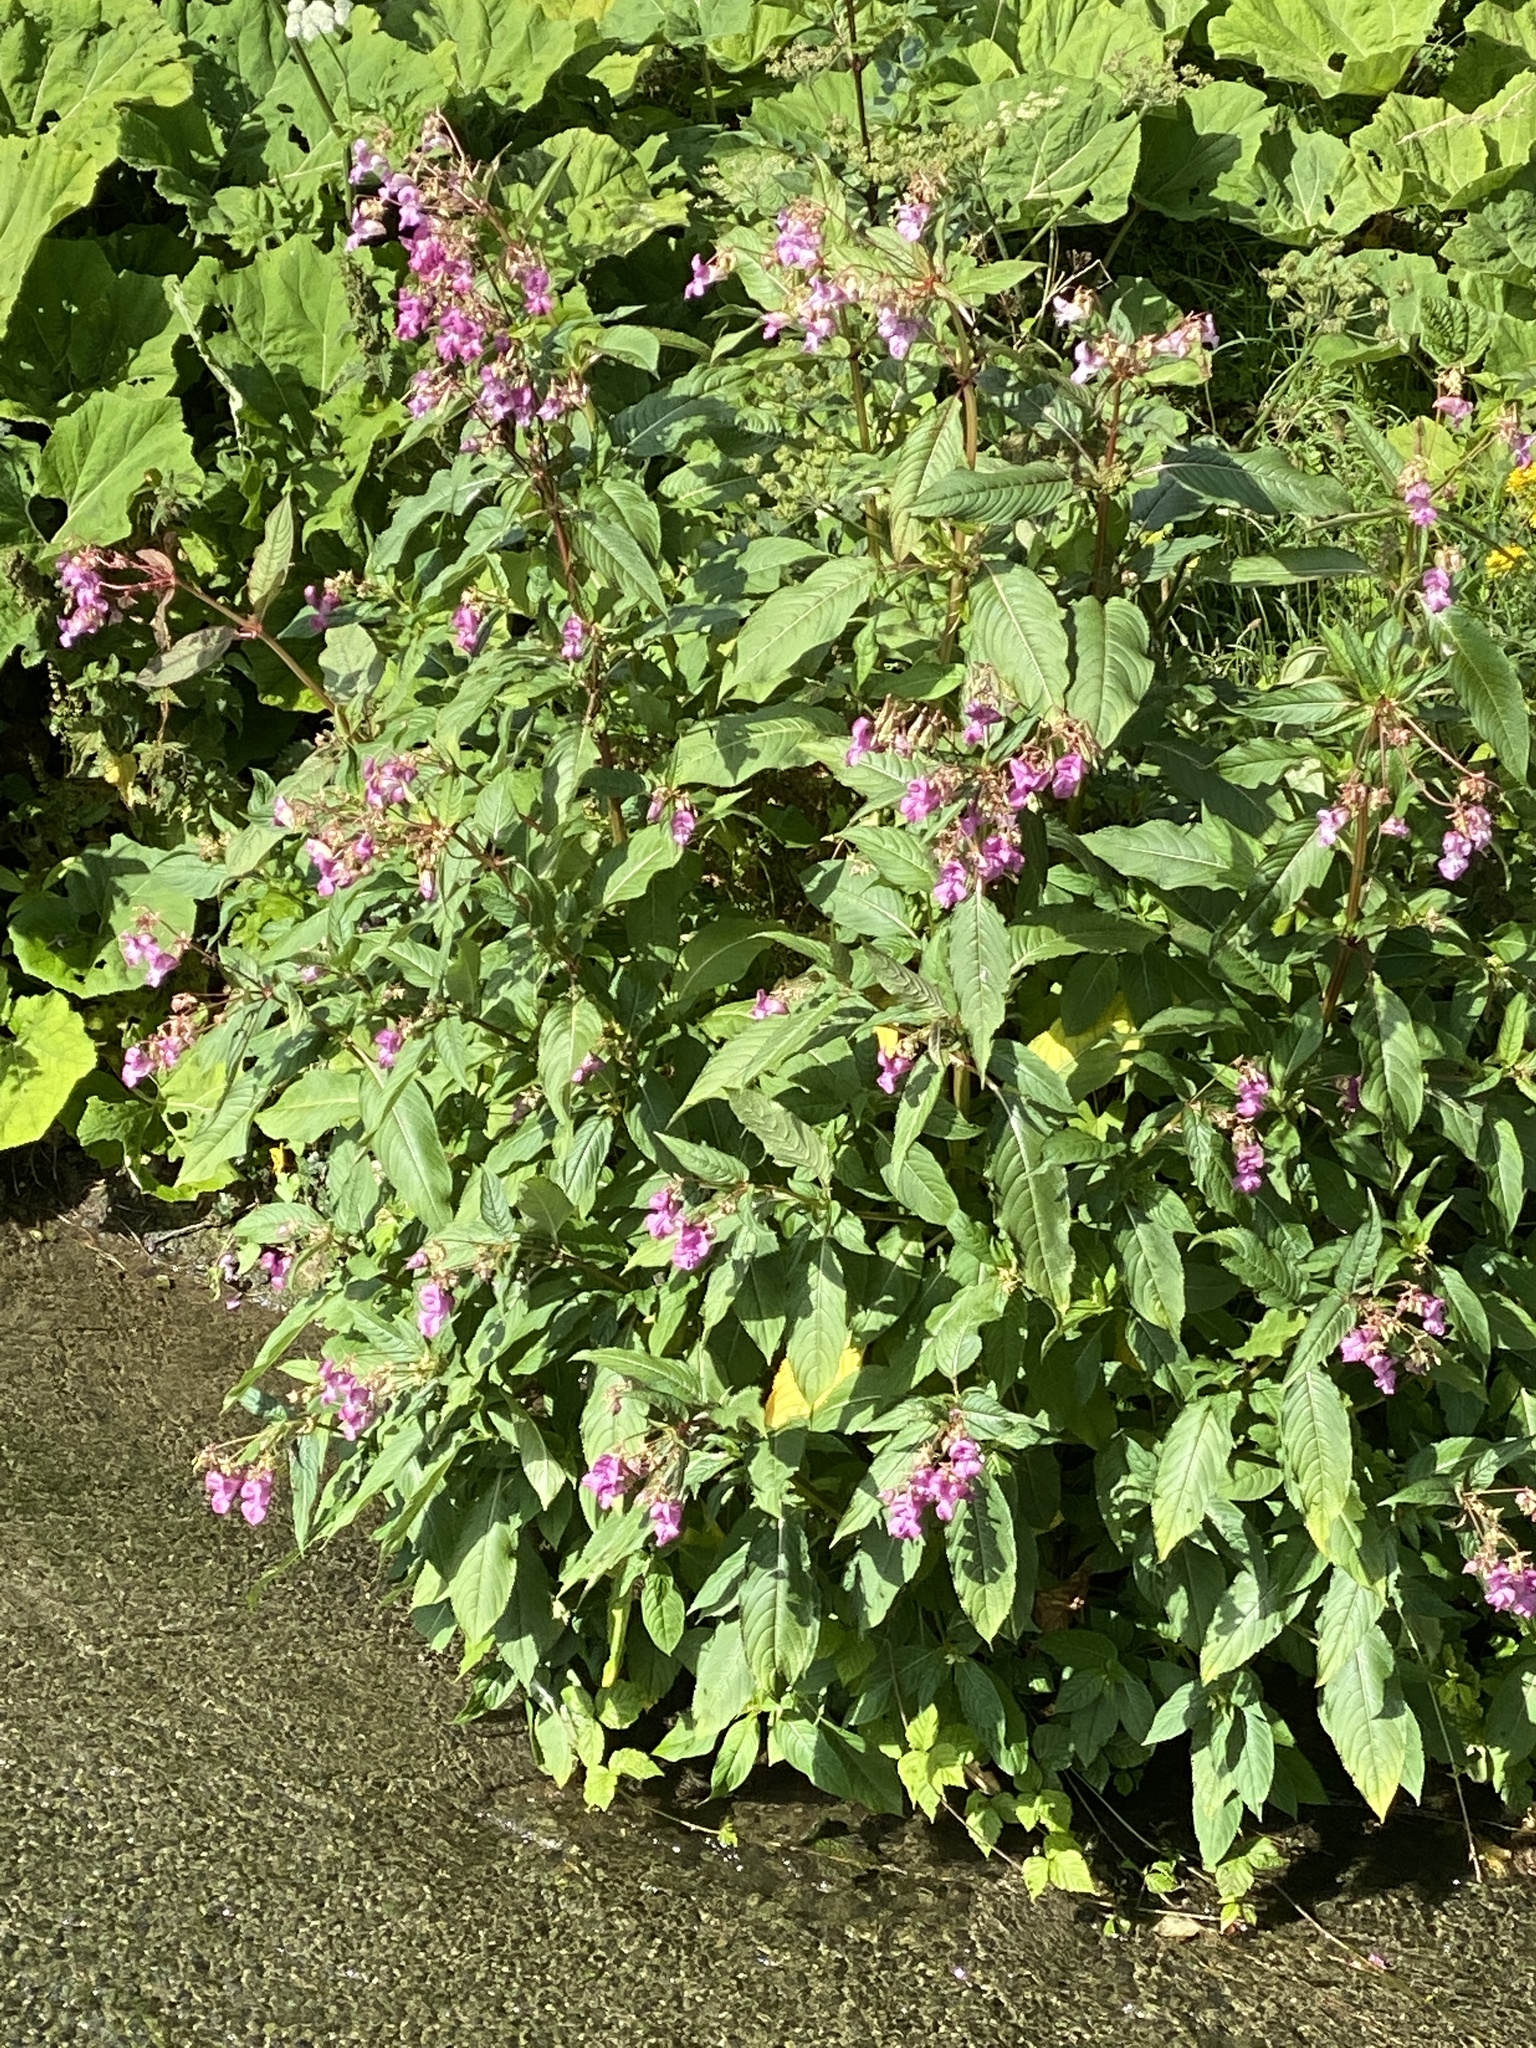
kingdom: Plantae
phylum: Tracheophyta
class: Magnoliopsida
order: Ericales
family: Balsaminaceae
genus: Impatiens
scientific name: Impatiens glandulifera
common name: Himalayan balsam
